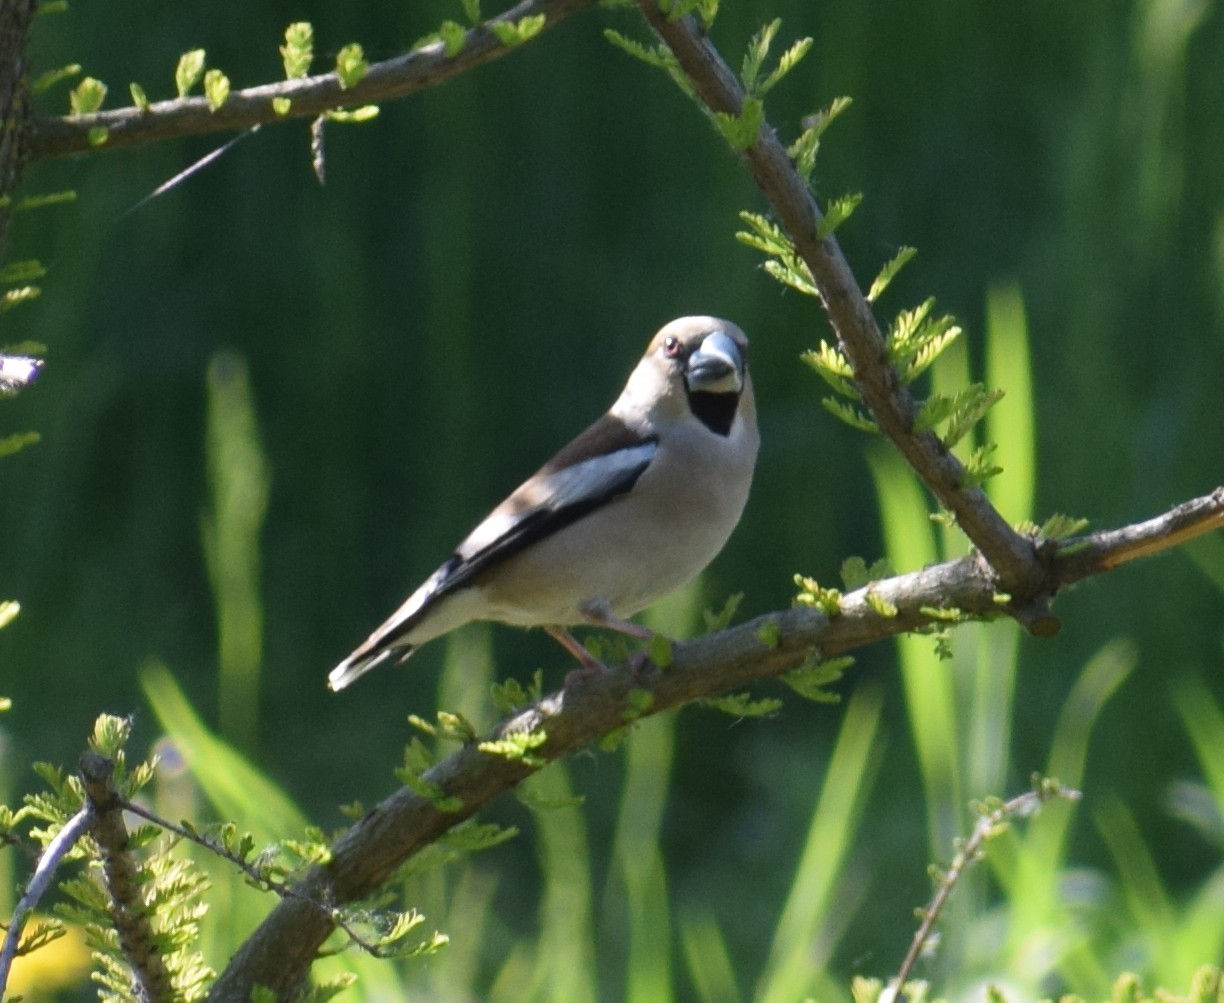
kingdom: Animalia
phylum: Chordata
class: Aves
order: Passeriformes
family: Fringillidae
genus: Coccothraustes
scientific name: Coccothraustes coccothraustes
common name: Hawfinch
